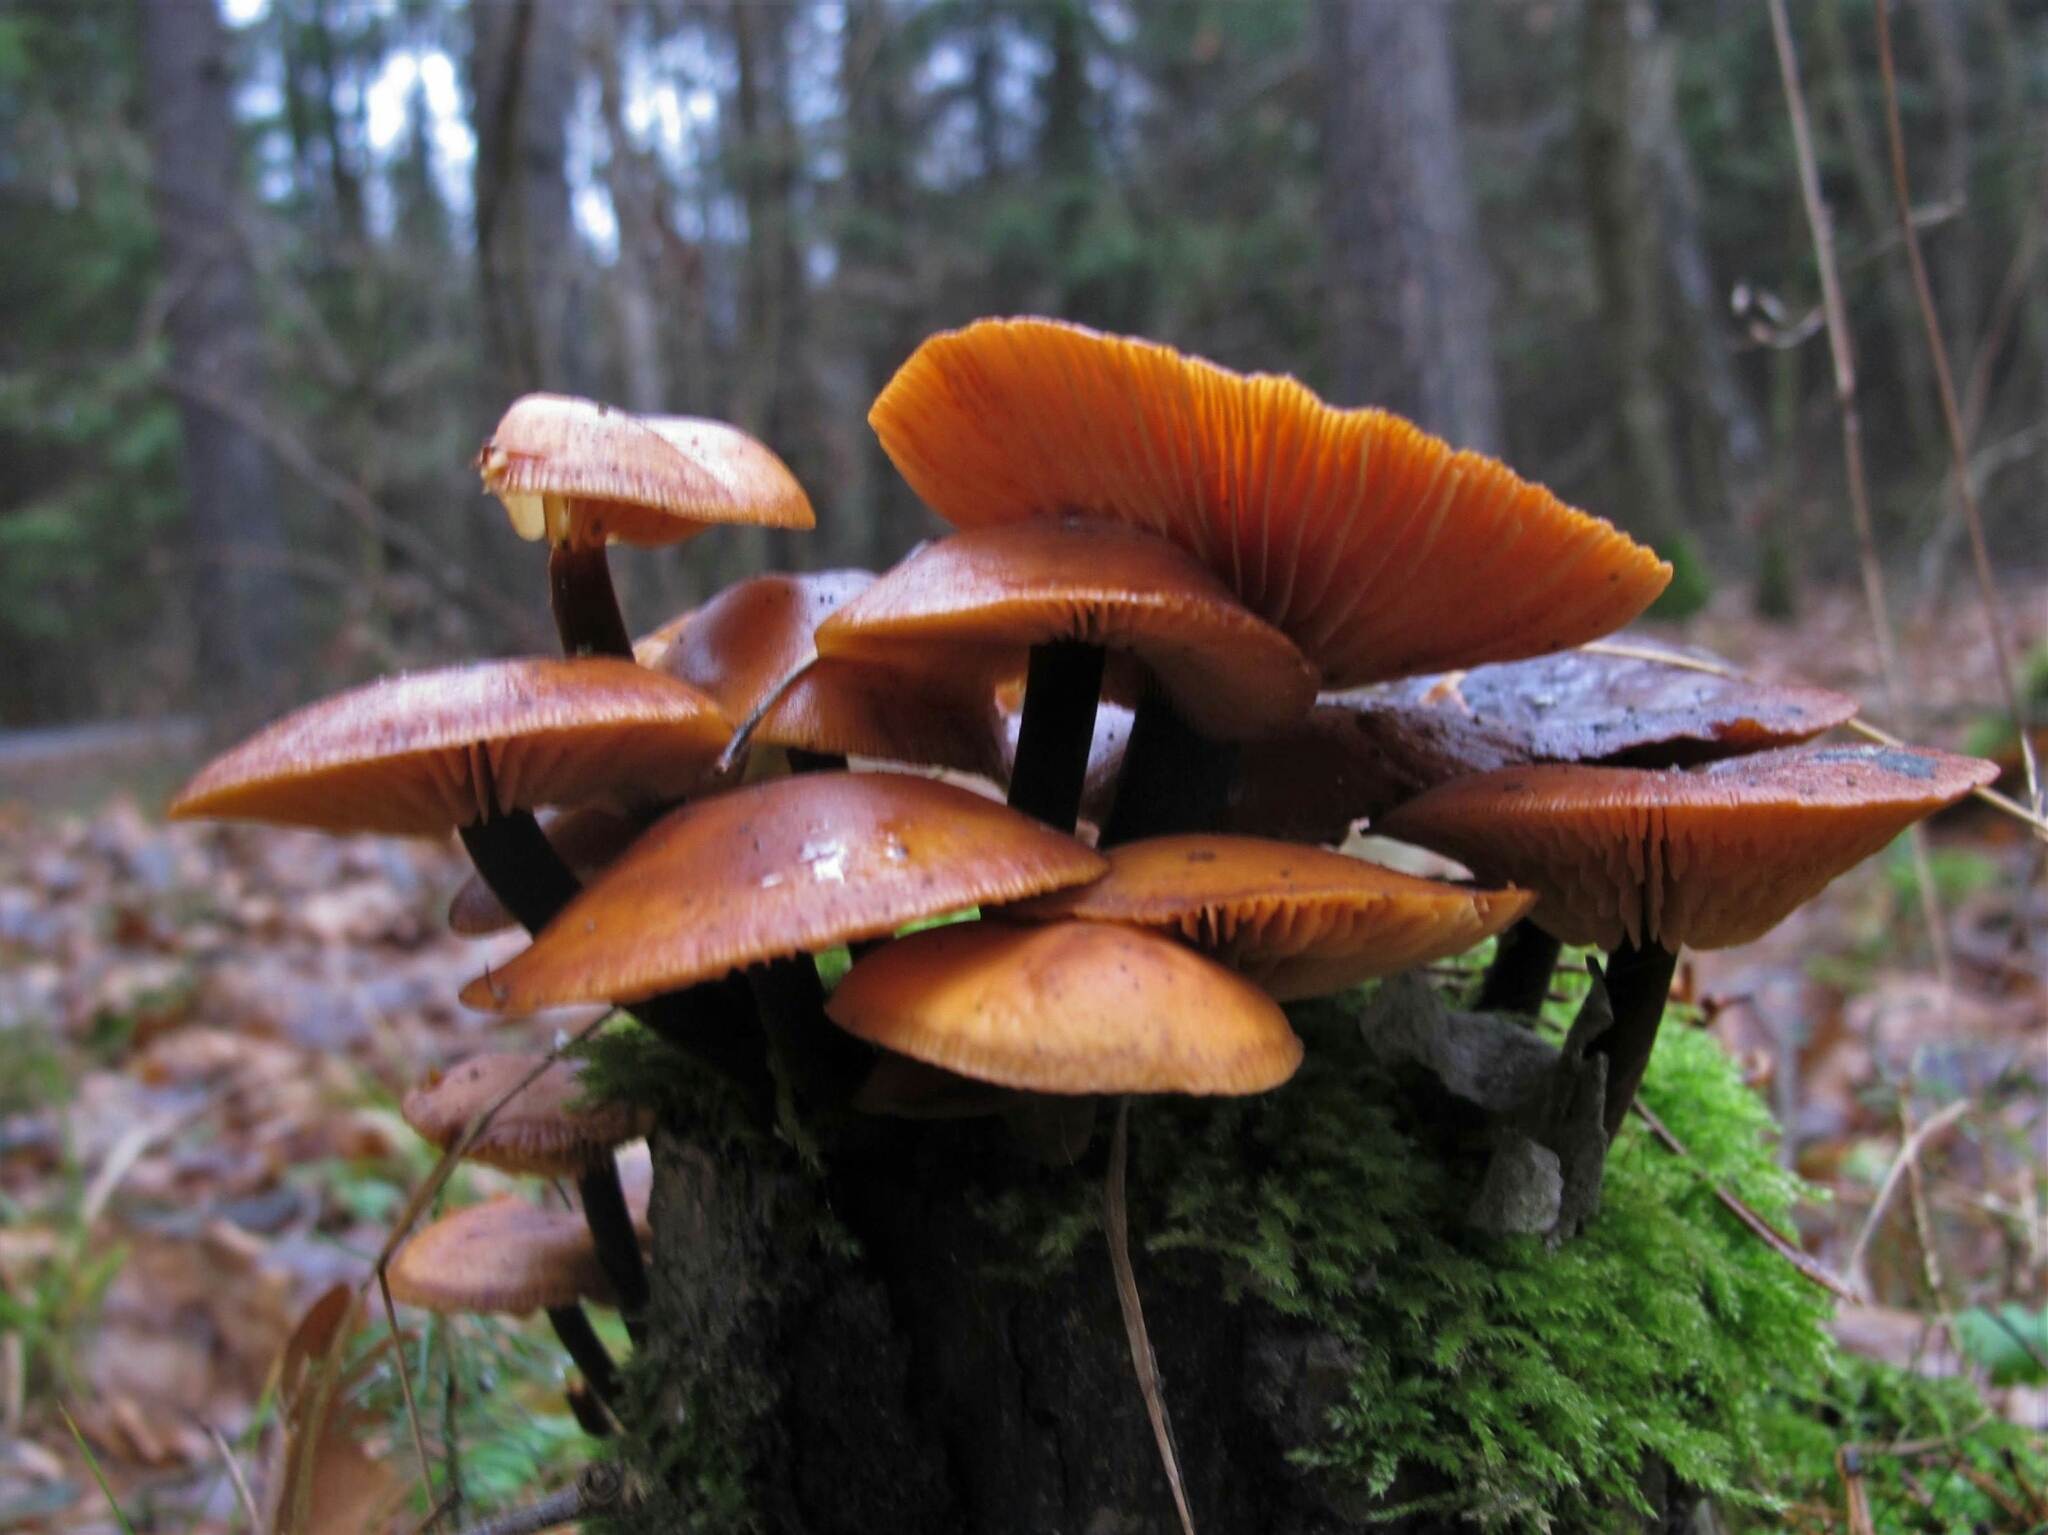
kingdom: Fungi
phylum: Basidiomycota
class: Agaricomycetes
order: Agaricales
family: Physalacriaceae
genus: Flammulina
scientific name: Flammulina
